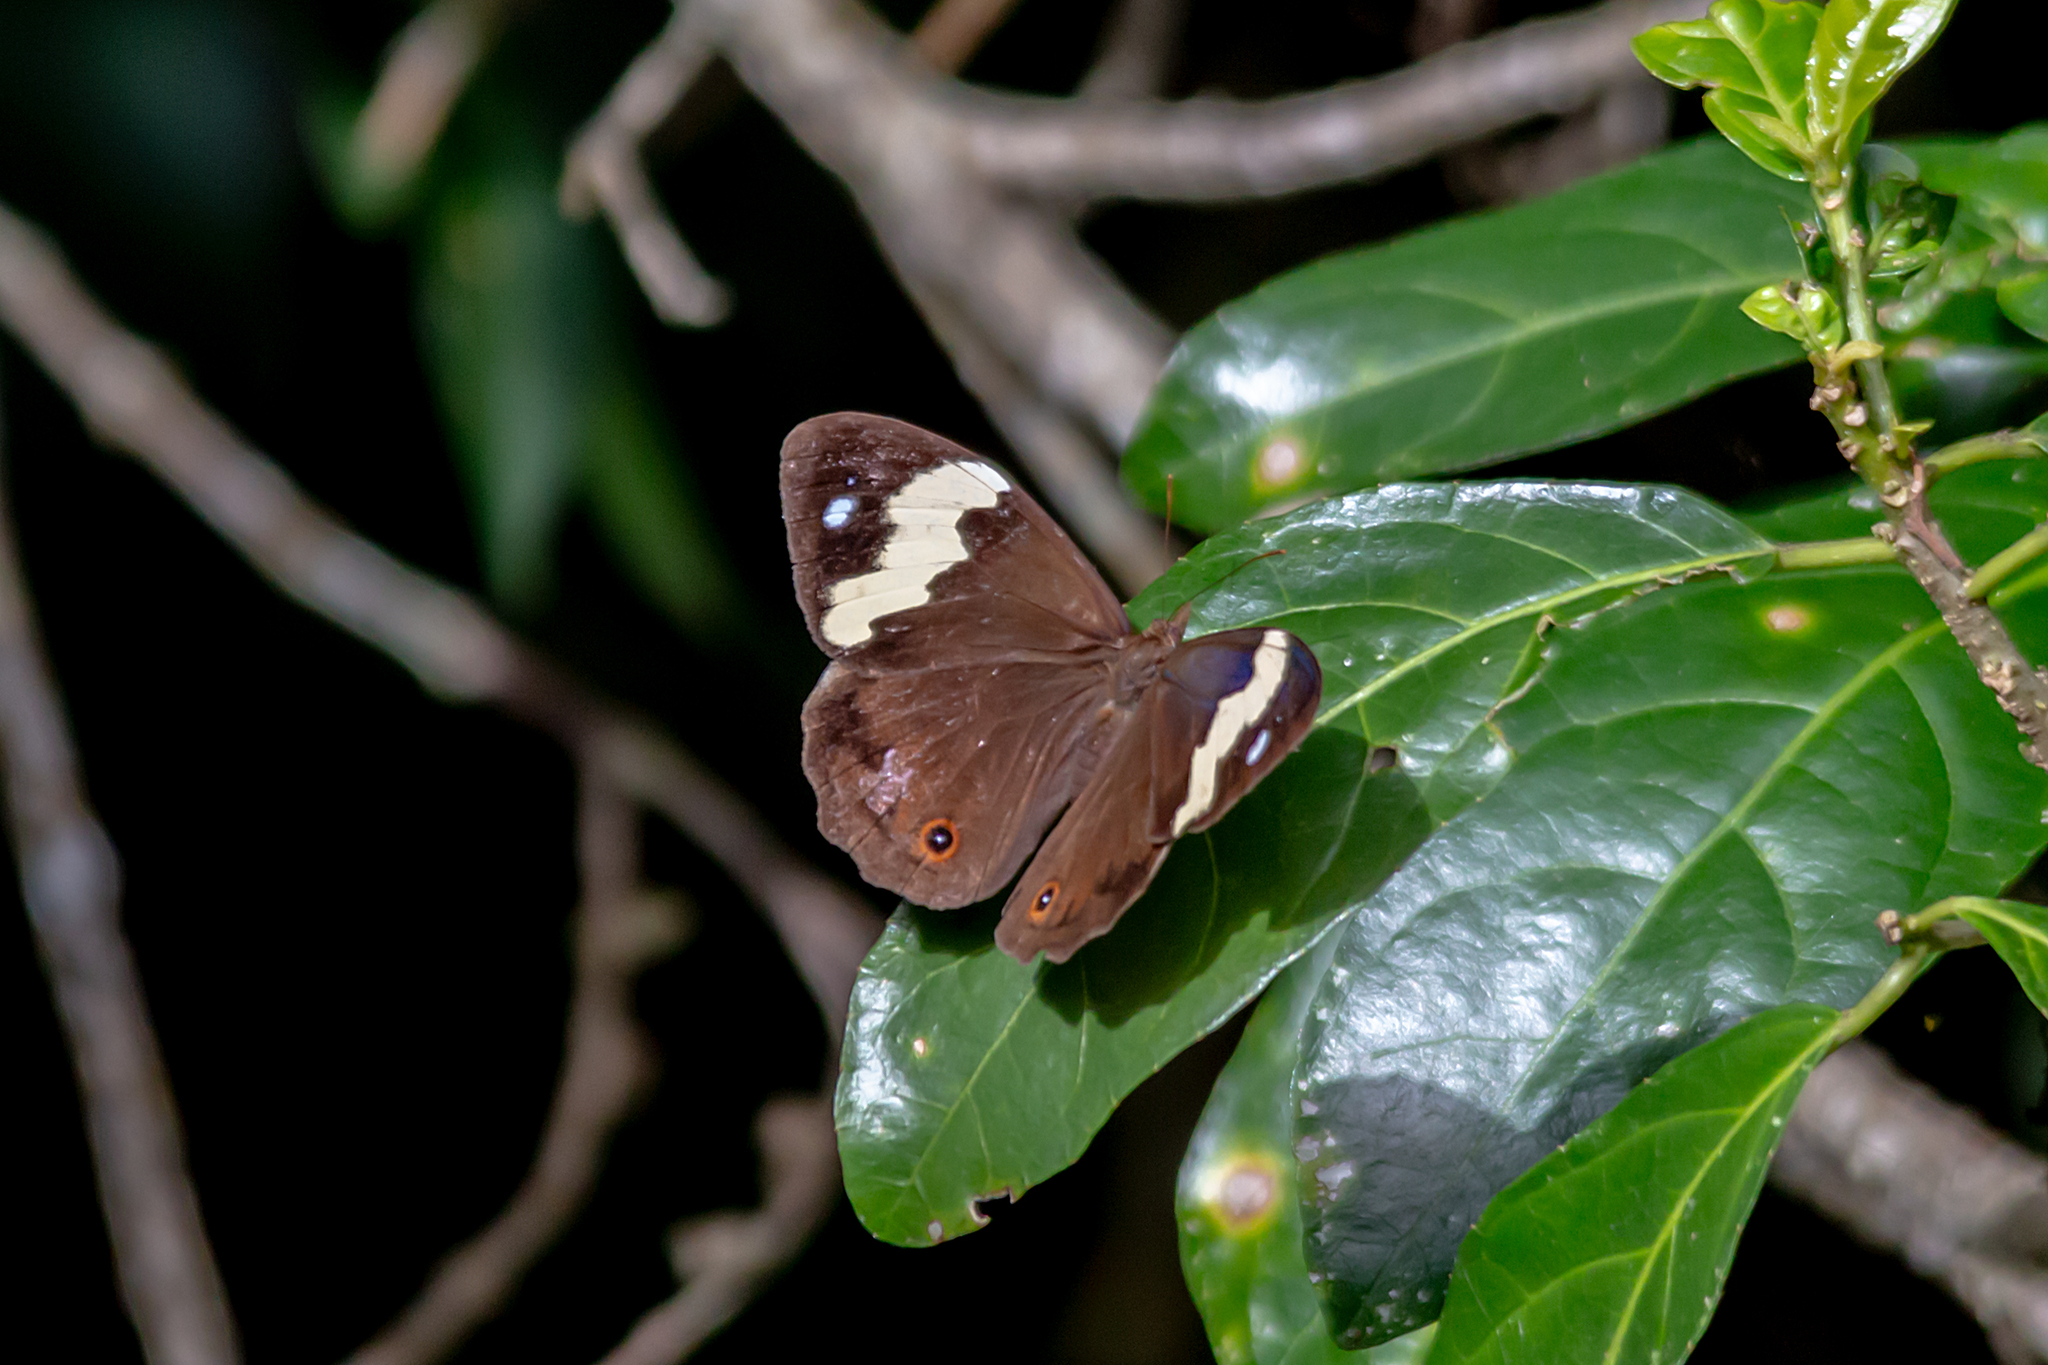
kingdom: Animalia
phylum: Arthropoda
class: Insecta
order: Lepidoptera
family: Nymphalidae
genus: Heteronympha
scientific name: Heteronympha mirifica
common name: Wonder brown
